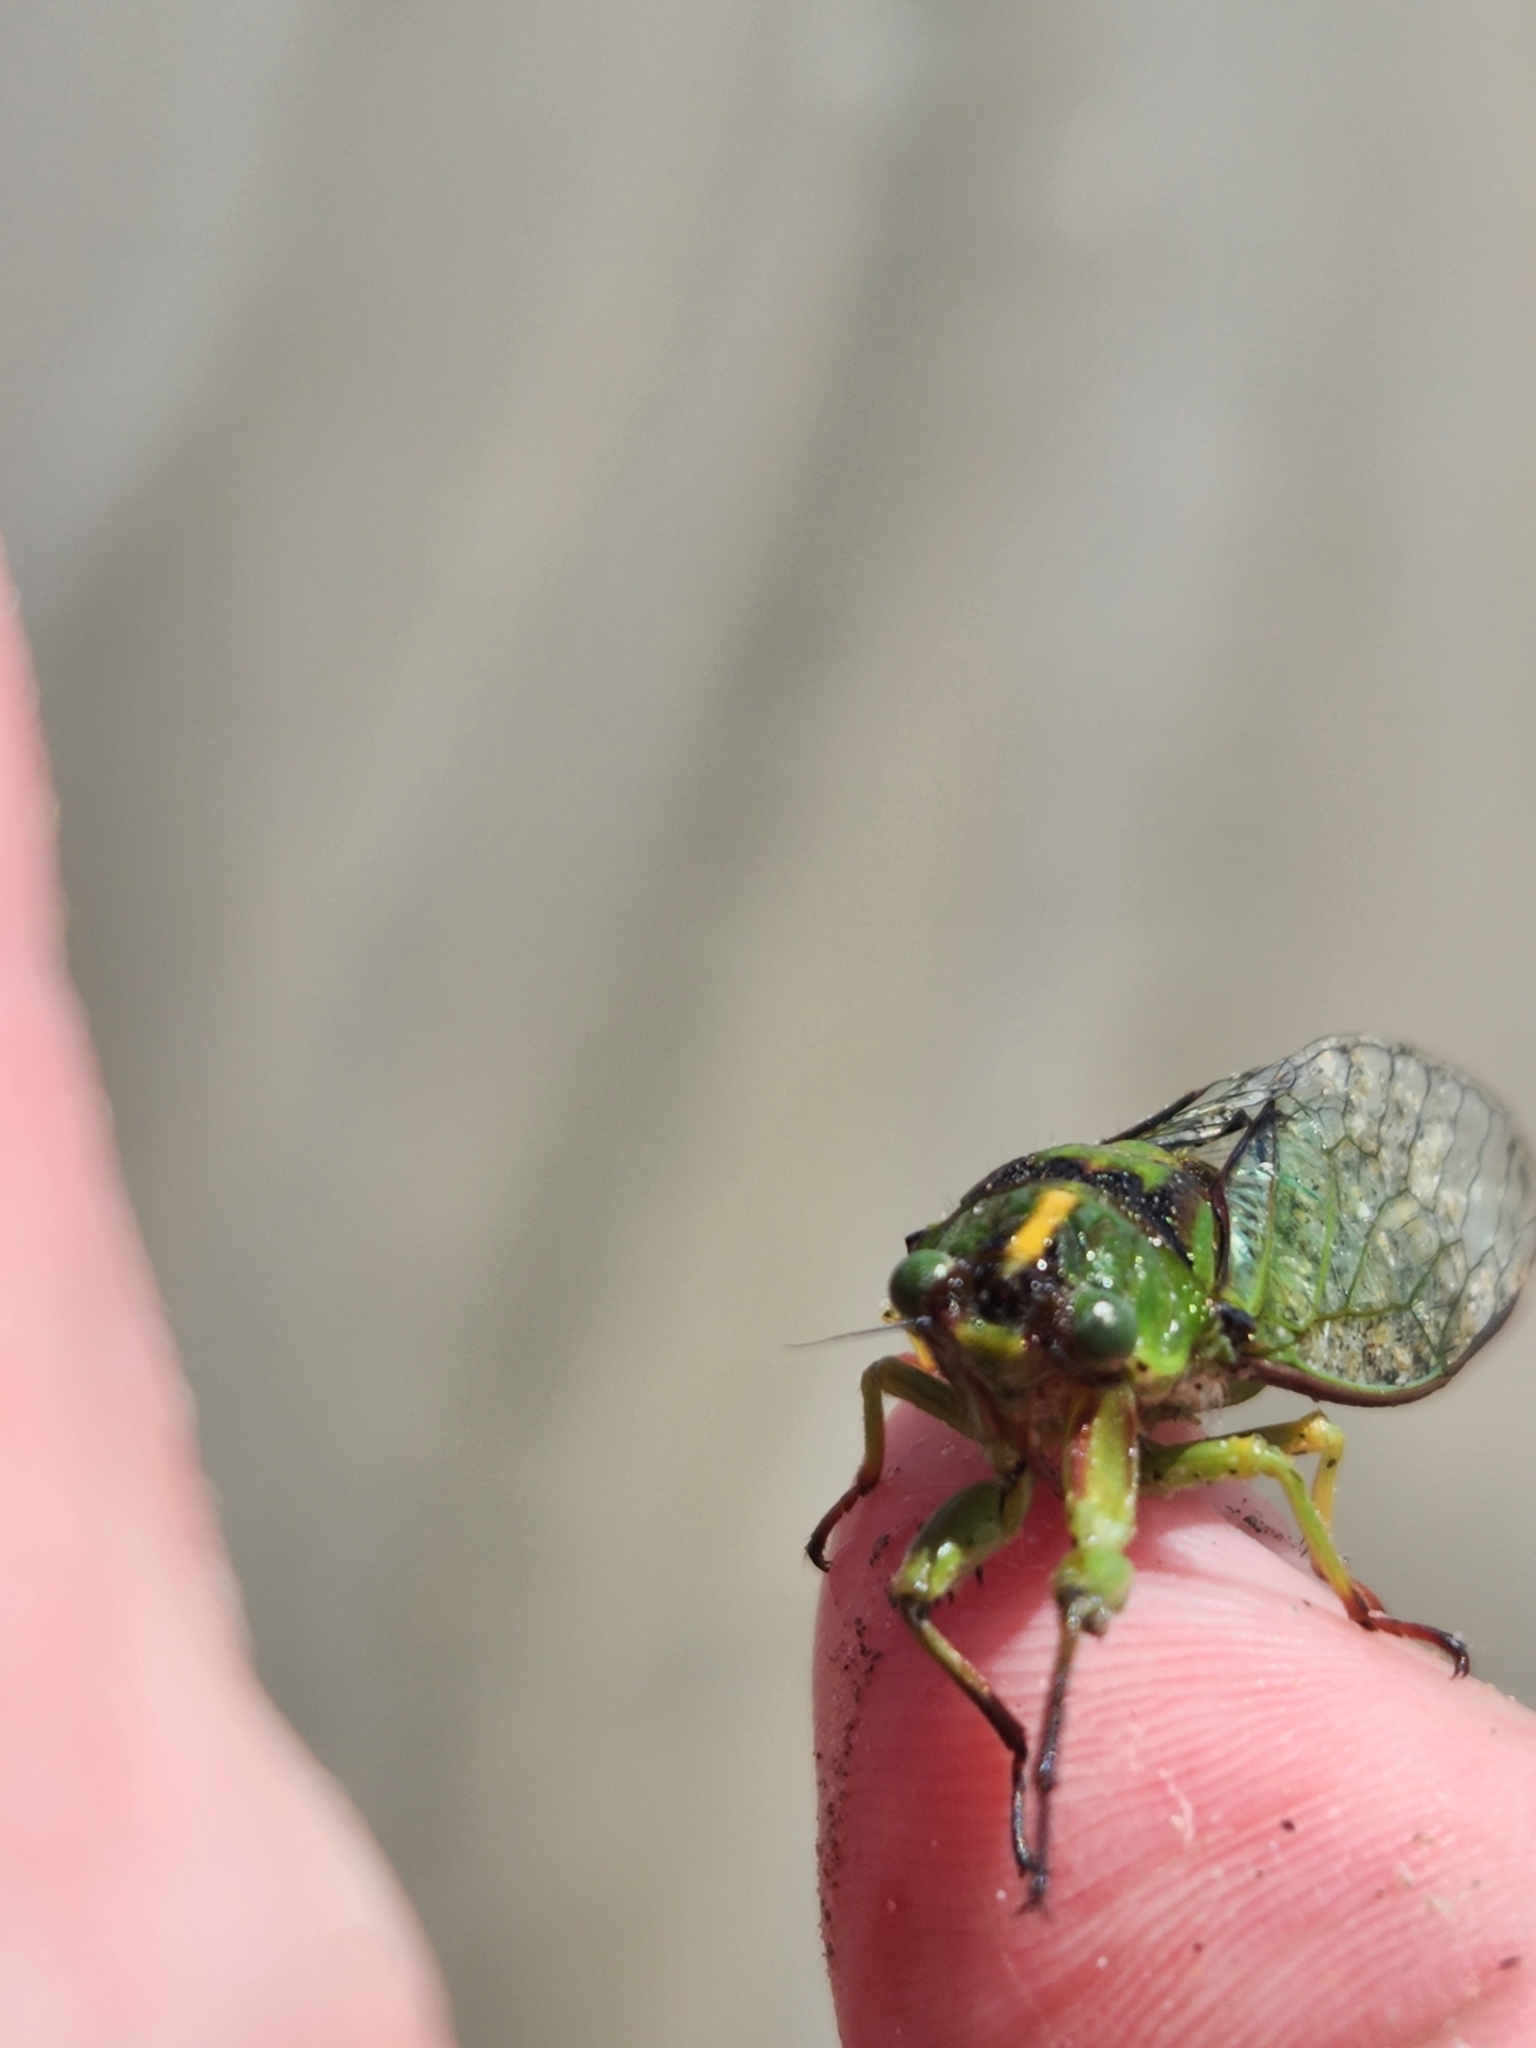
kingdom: Animalia
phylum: Arthropoda
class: Insecta
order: Hemiptera
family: Cicadidae
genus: Kikihia
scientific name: Kikihia subalpina
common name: Chathams cicada
